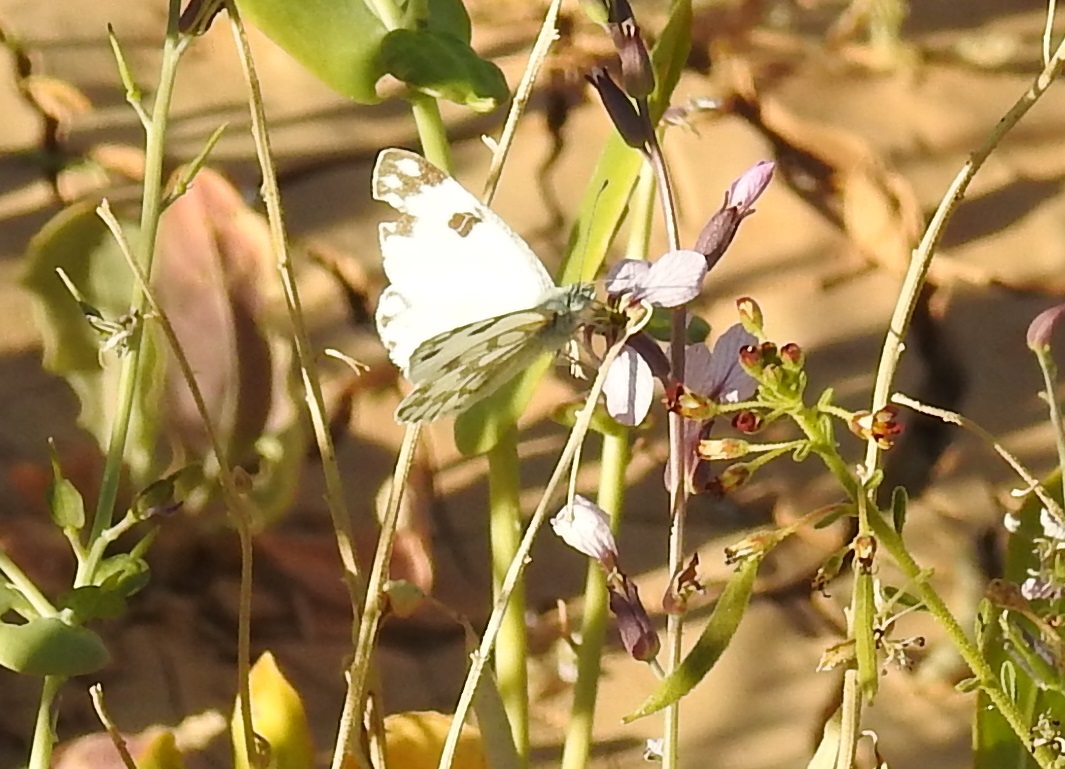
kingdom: Animalia
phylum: Arthropoda
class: Insecta
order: Lepidoptera
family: Pieridae
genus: Pontia
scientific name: Pontia glauconome
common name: Desert bath white
